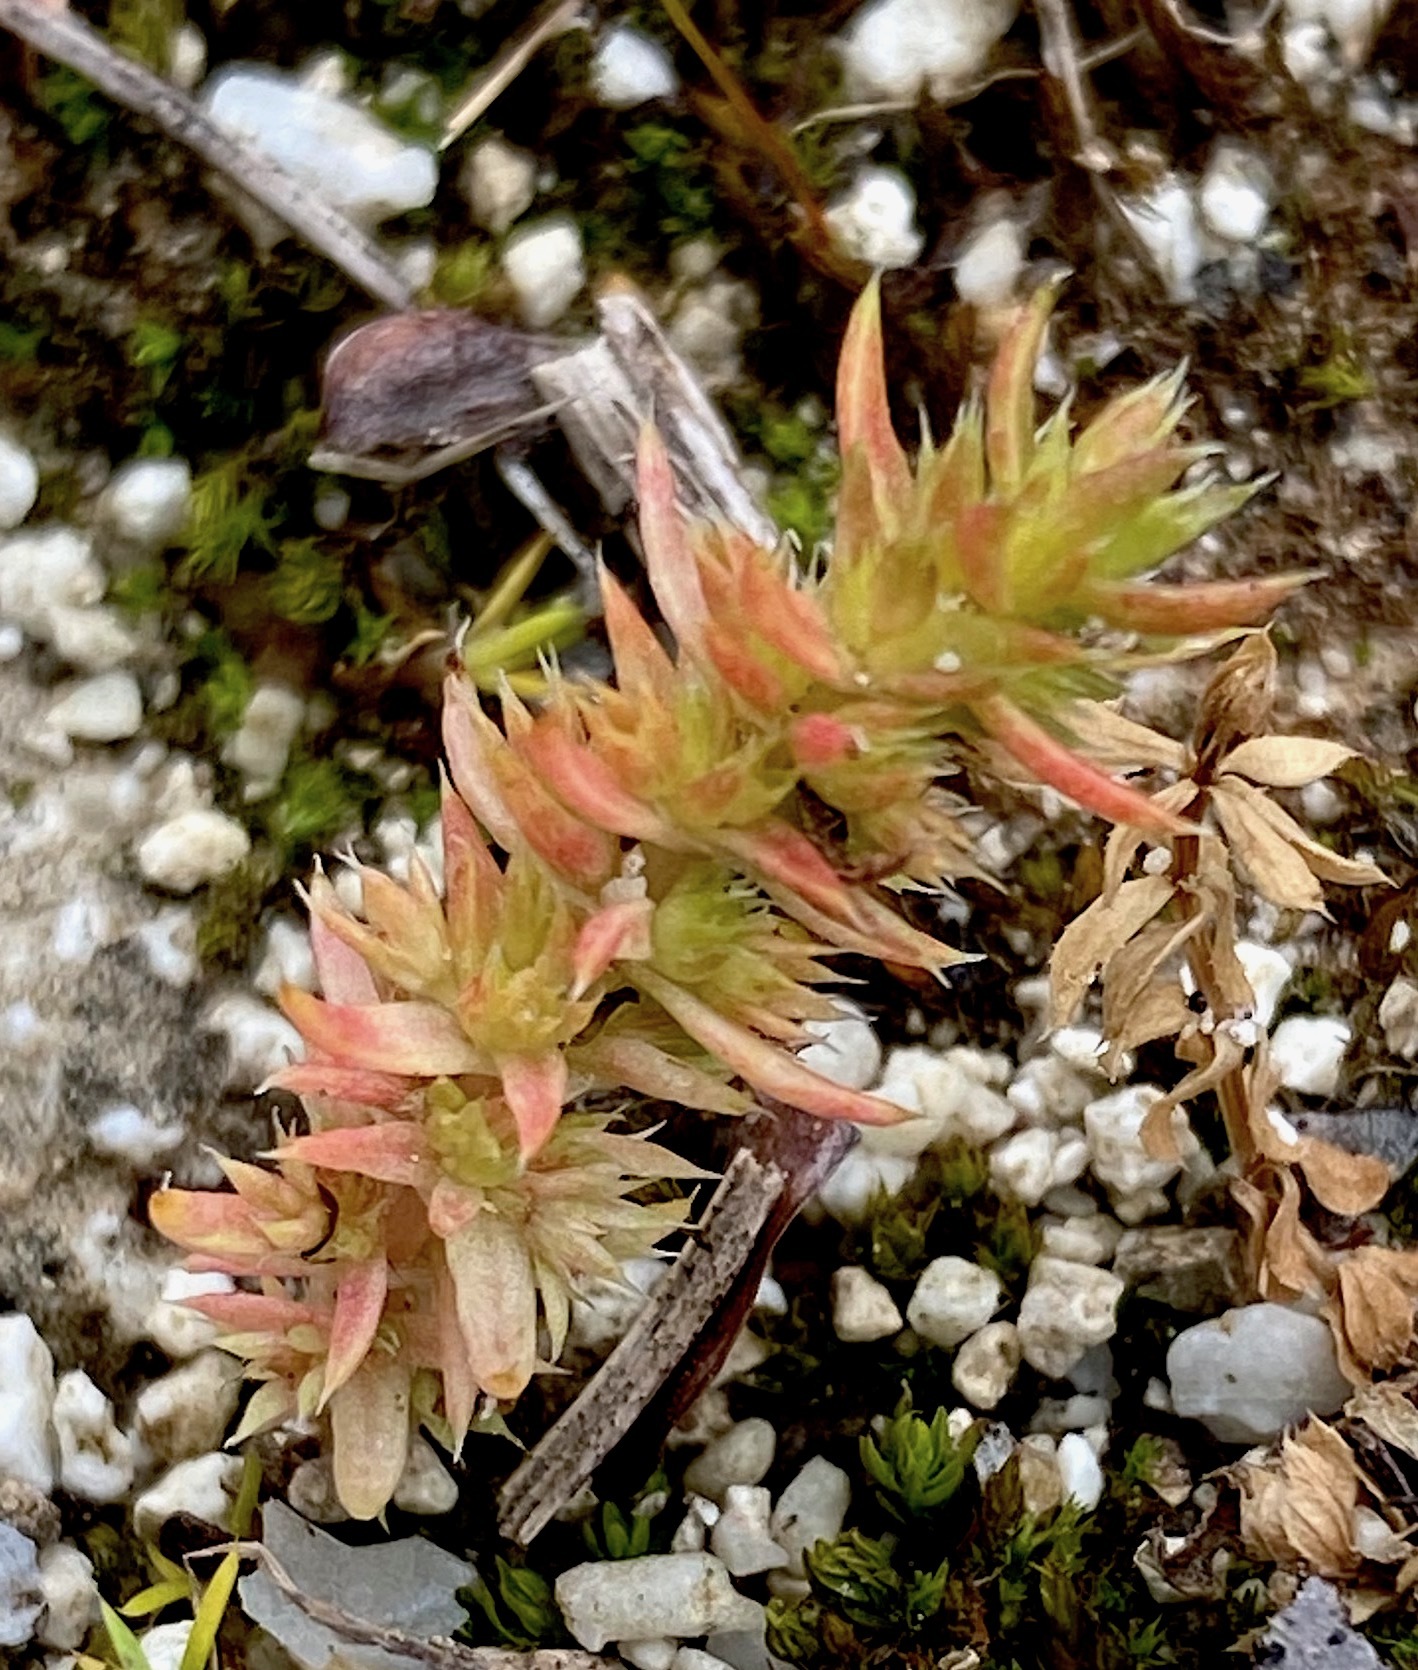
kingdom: Plantae
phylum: Tracheophyta
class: Magnoliopsida
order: Saxifragales
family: Crassulaceae
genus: Crassula
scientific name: Crassula alata
